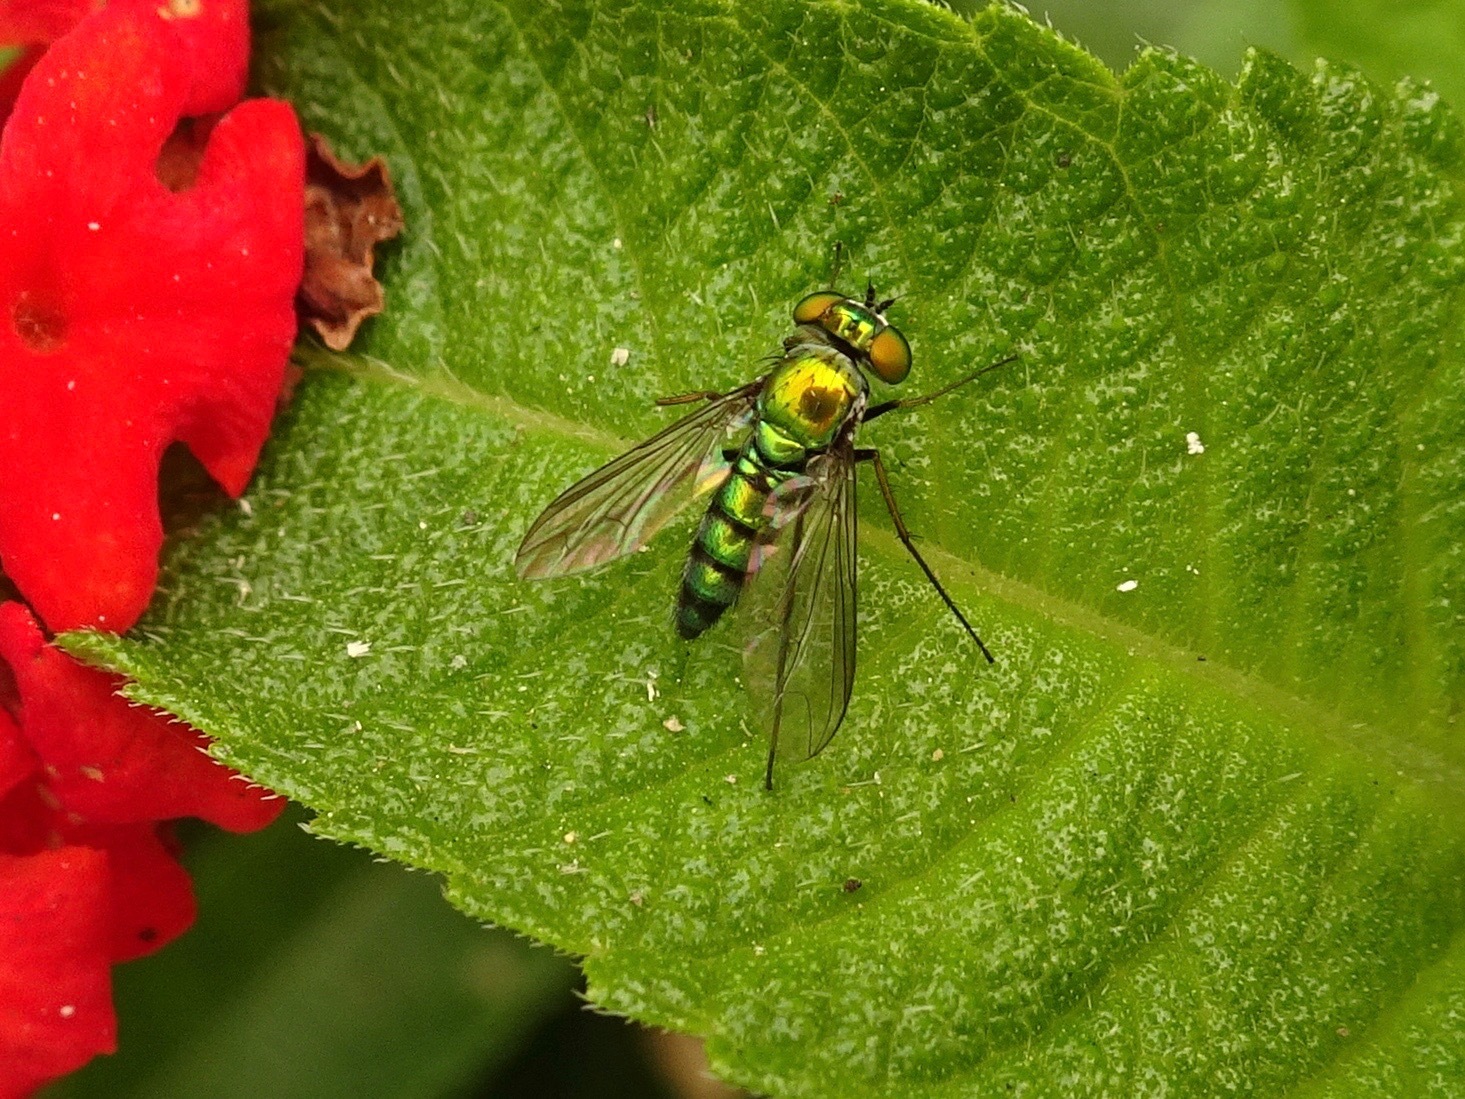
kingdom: Animalia
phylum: Arthropoda
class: Insecta
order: Diptera
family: Dolichopodidae
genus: Condylostylus
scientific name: Condylostylus longicornis
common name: Long-legged fly
